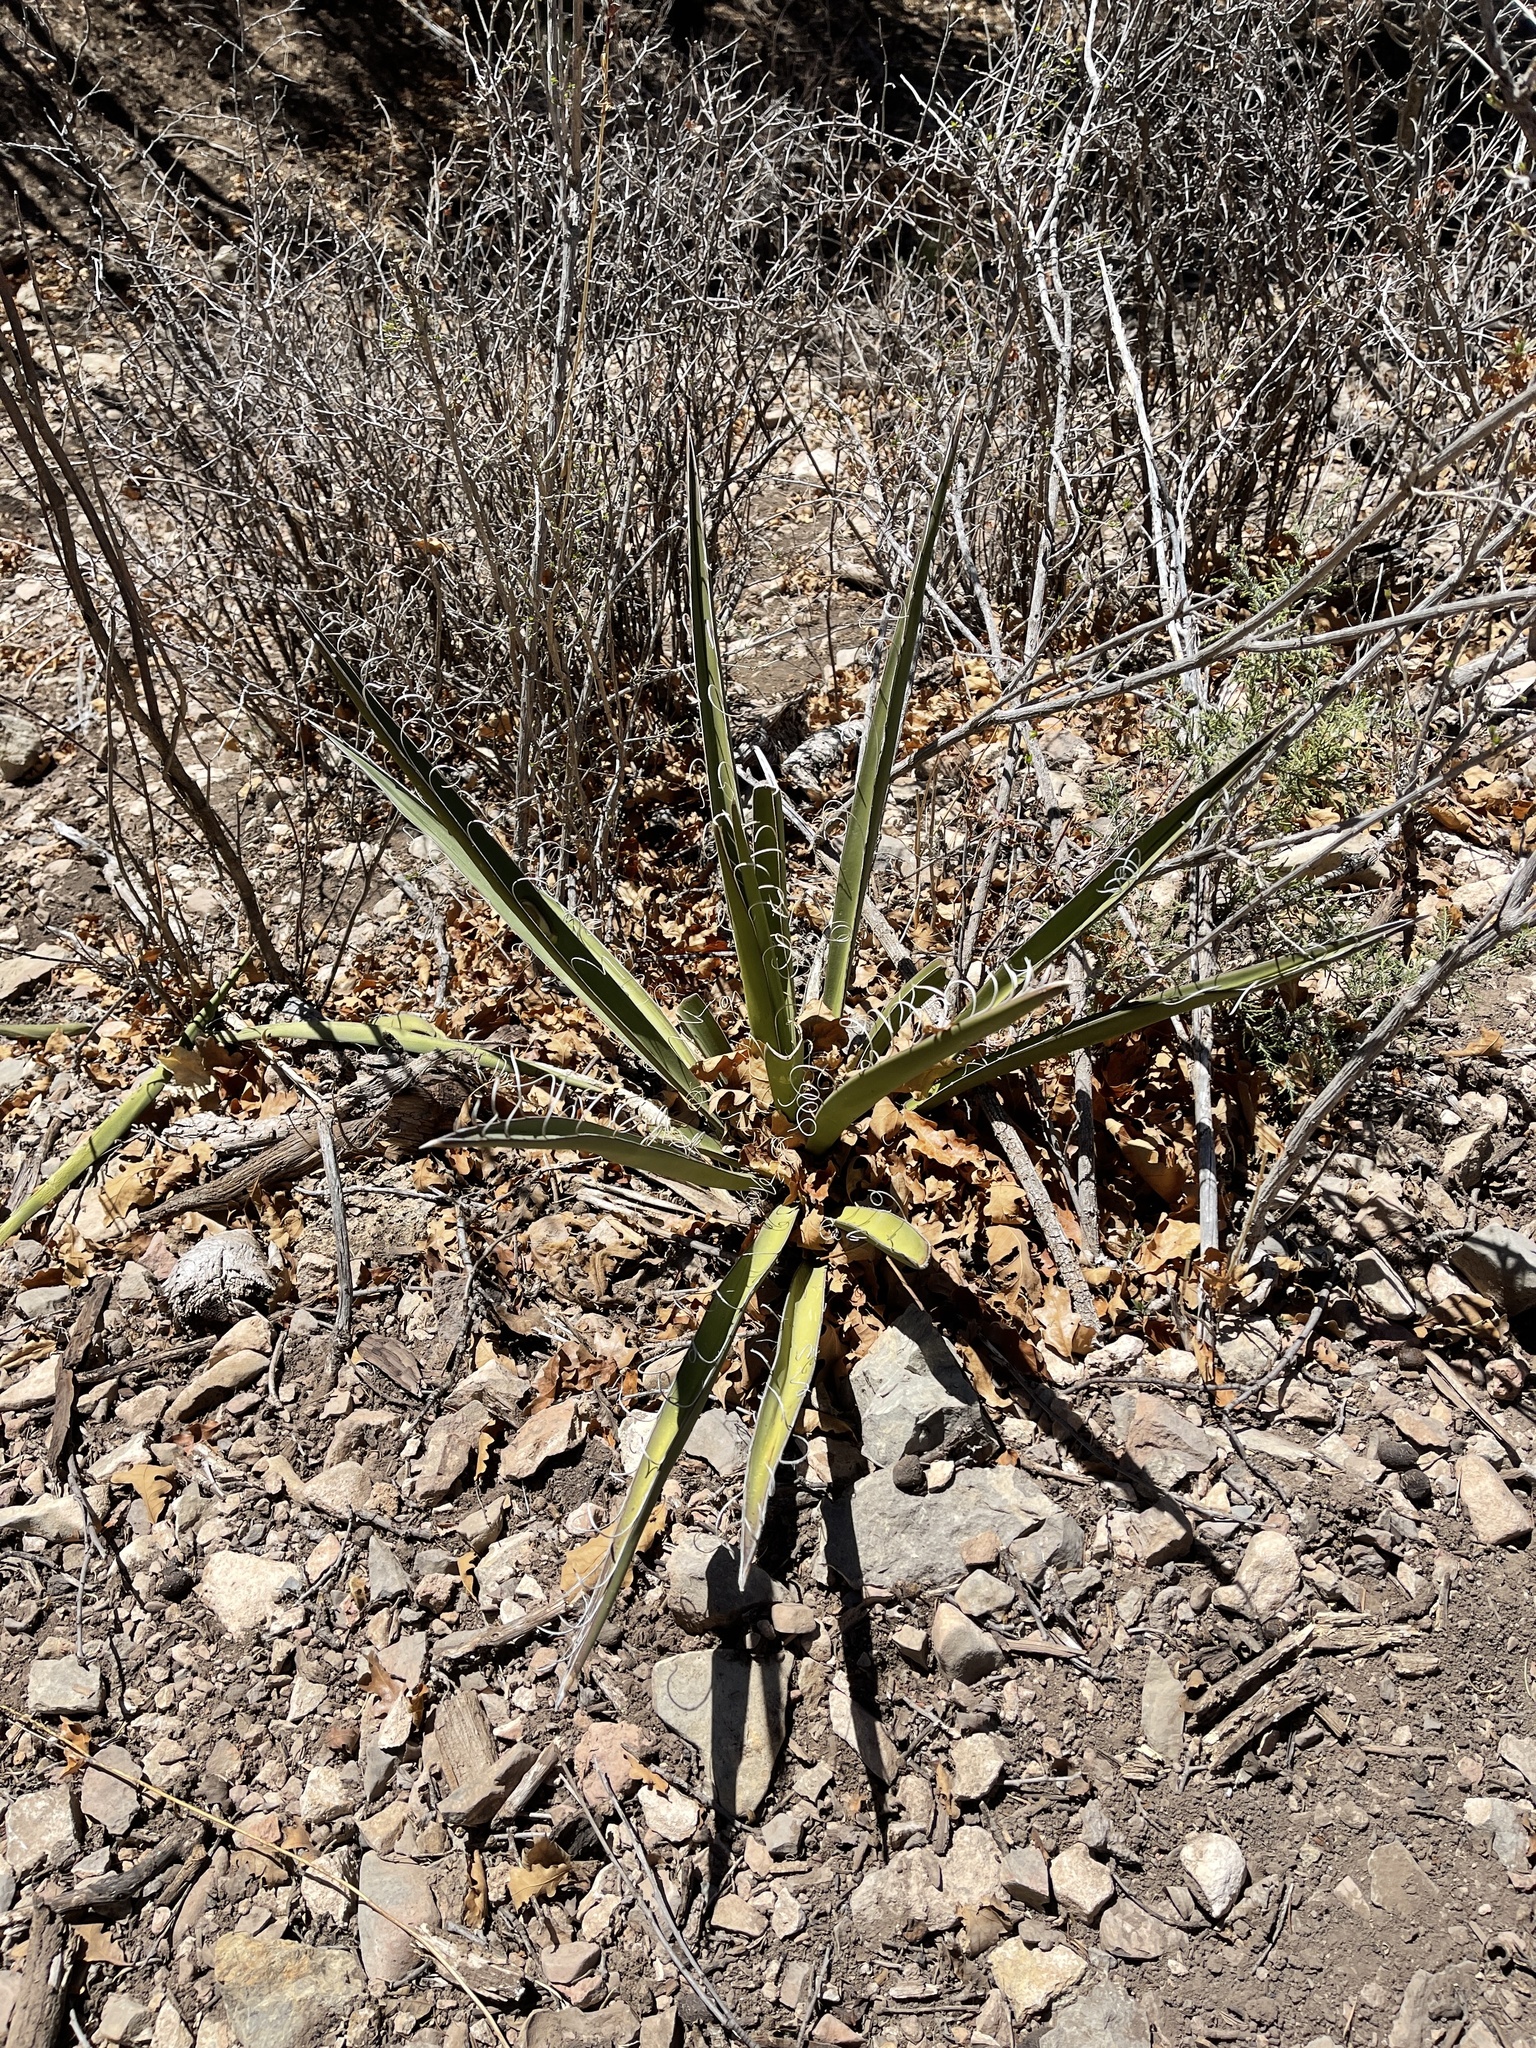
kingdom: Plantae
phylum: Tracheophyta
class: Liliopsida
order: Asparagales
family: Asparagaceae
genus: Yucca
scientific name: Yucca baccata
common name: Banana yucca
